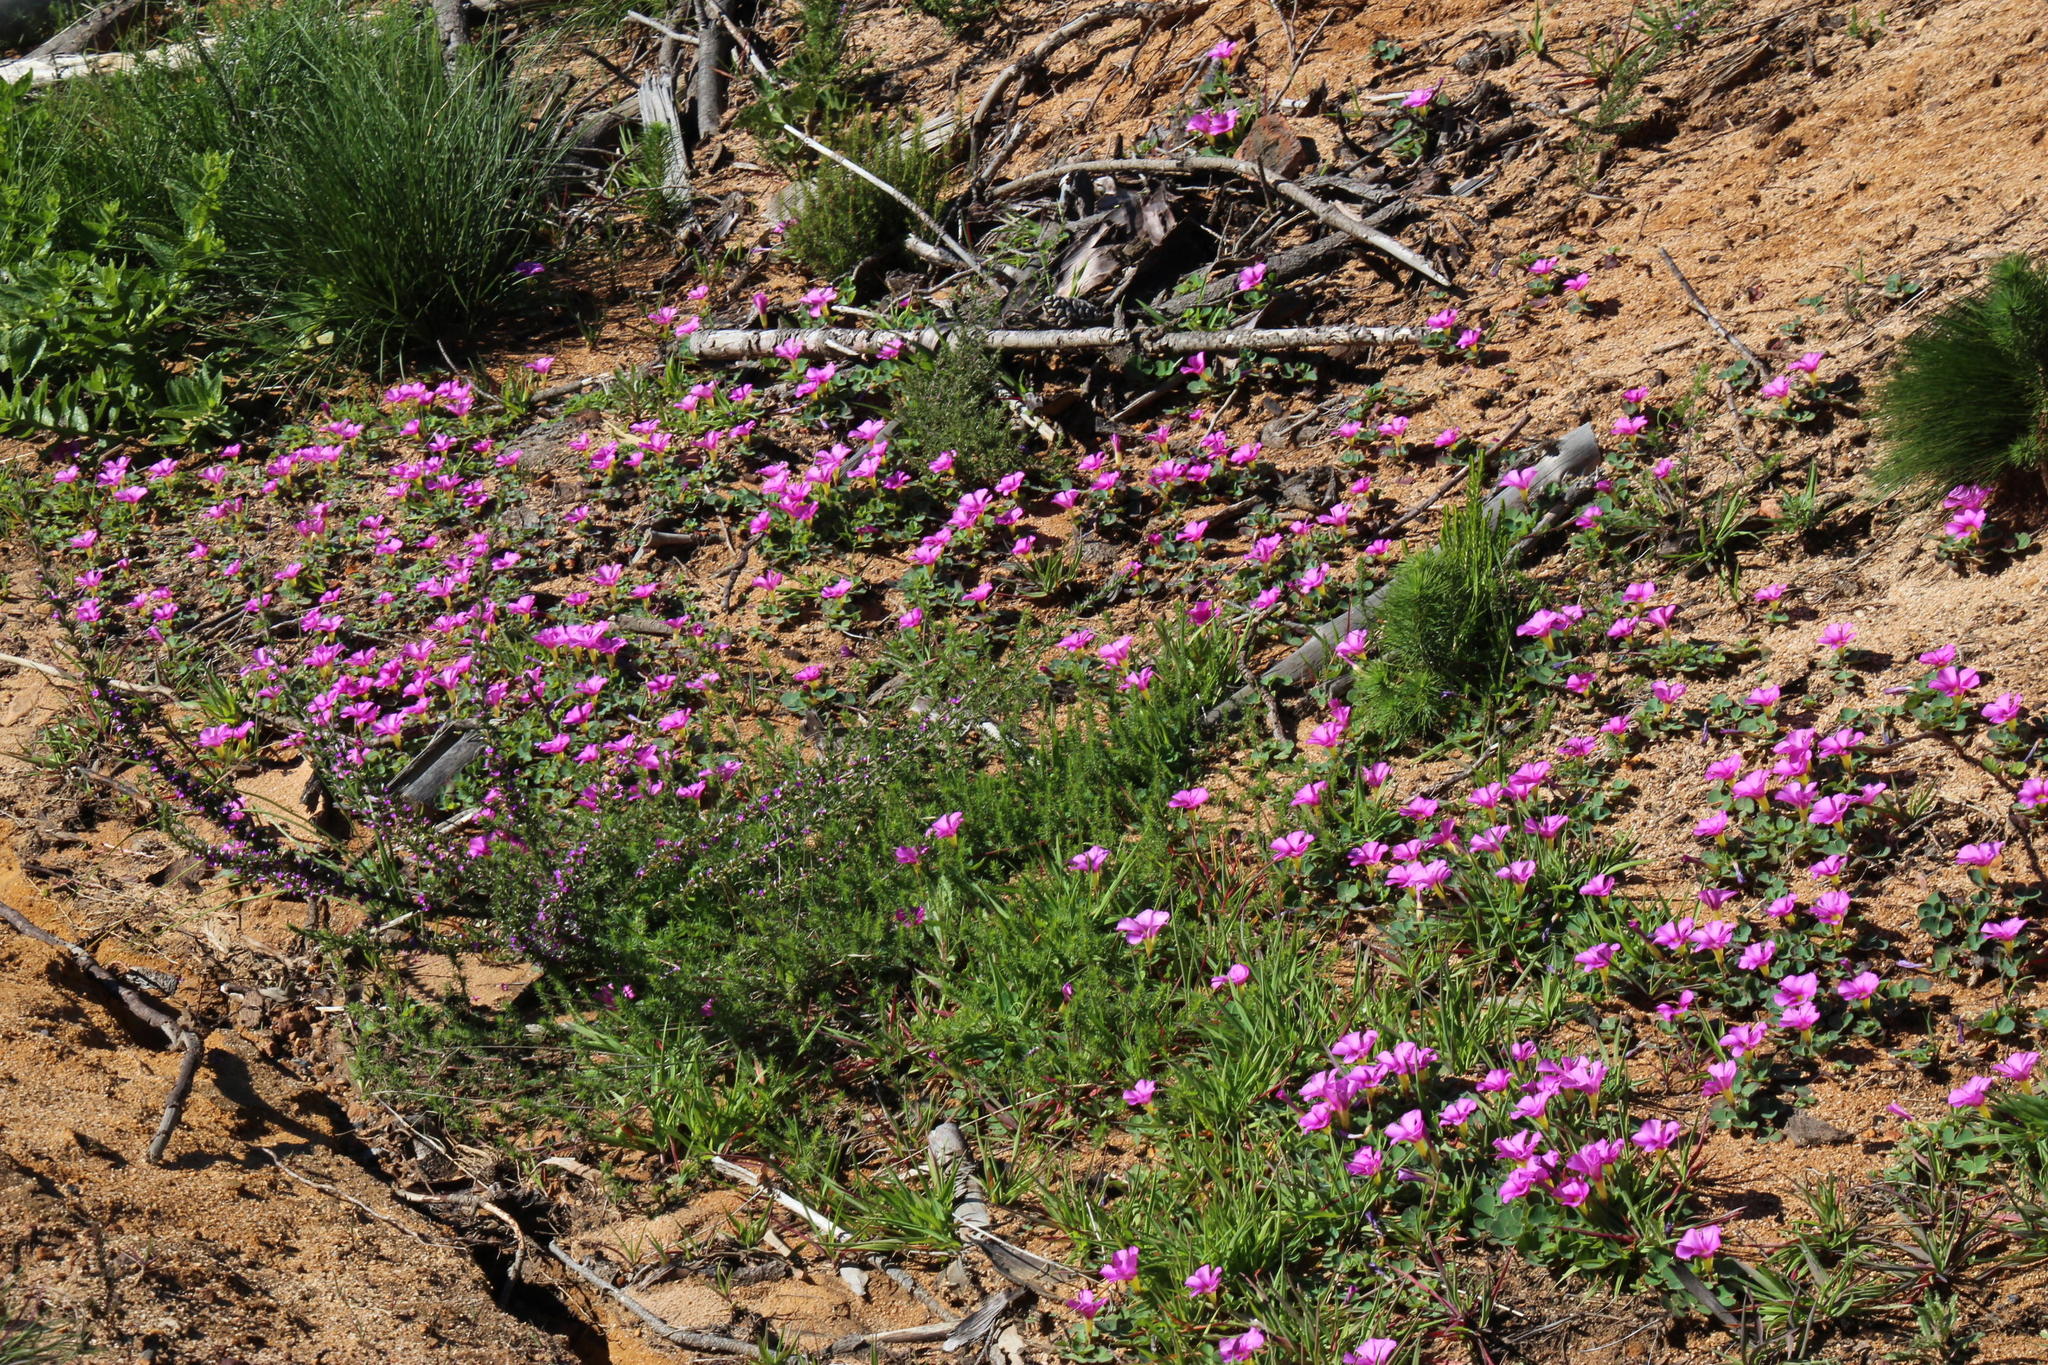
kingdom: Plantae
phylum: Tracheophyta
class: Magnoliopsida
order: Oxalidales
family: Oxalidaceae
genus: Oxalis
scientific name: Oxalis purpurea
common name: Purple woodsorrel
